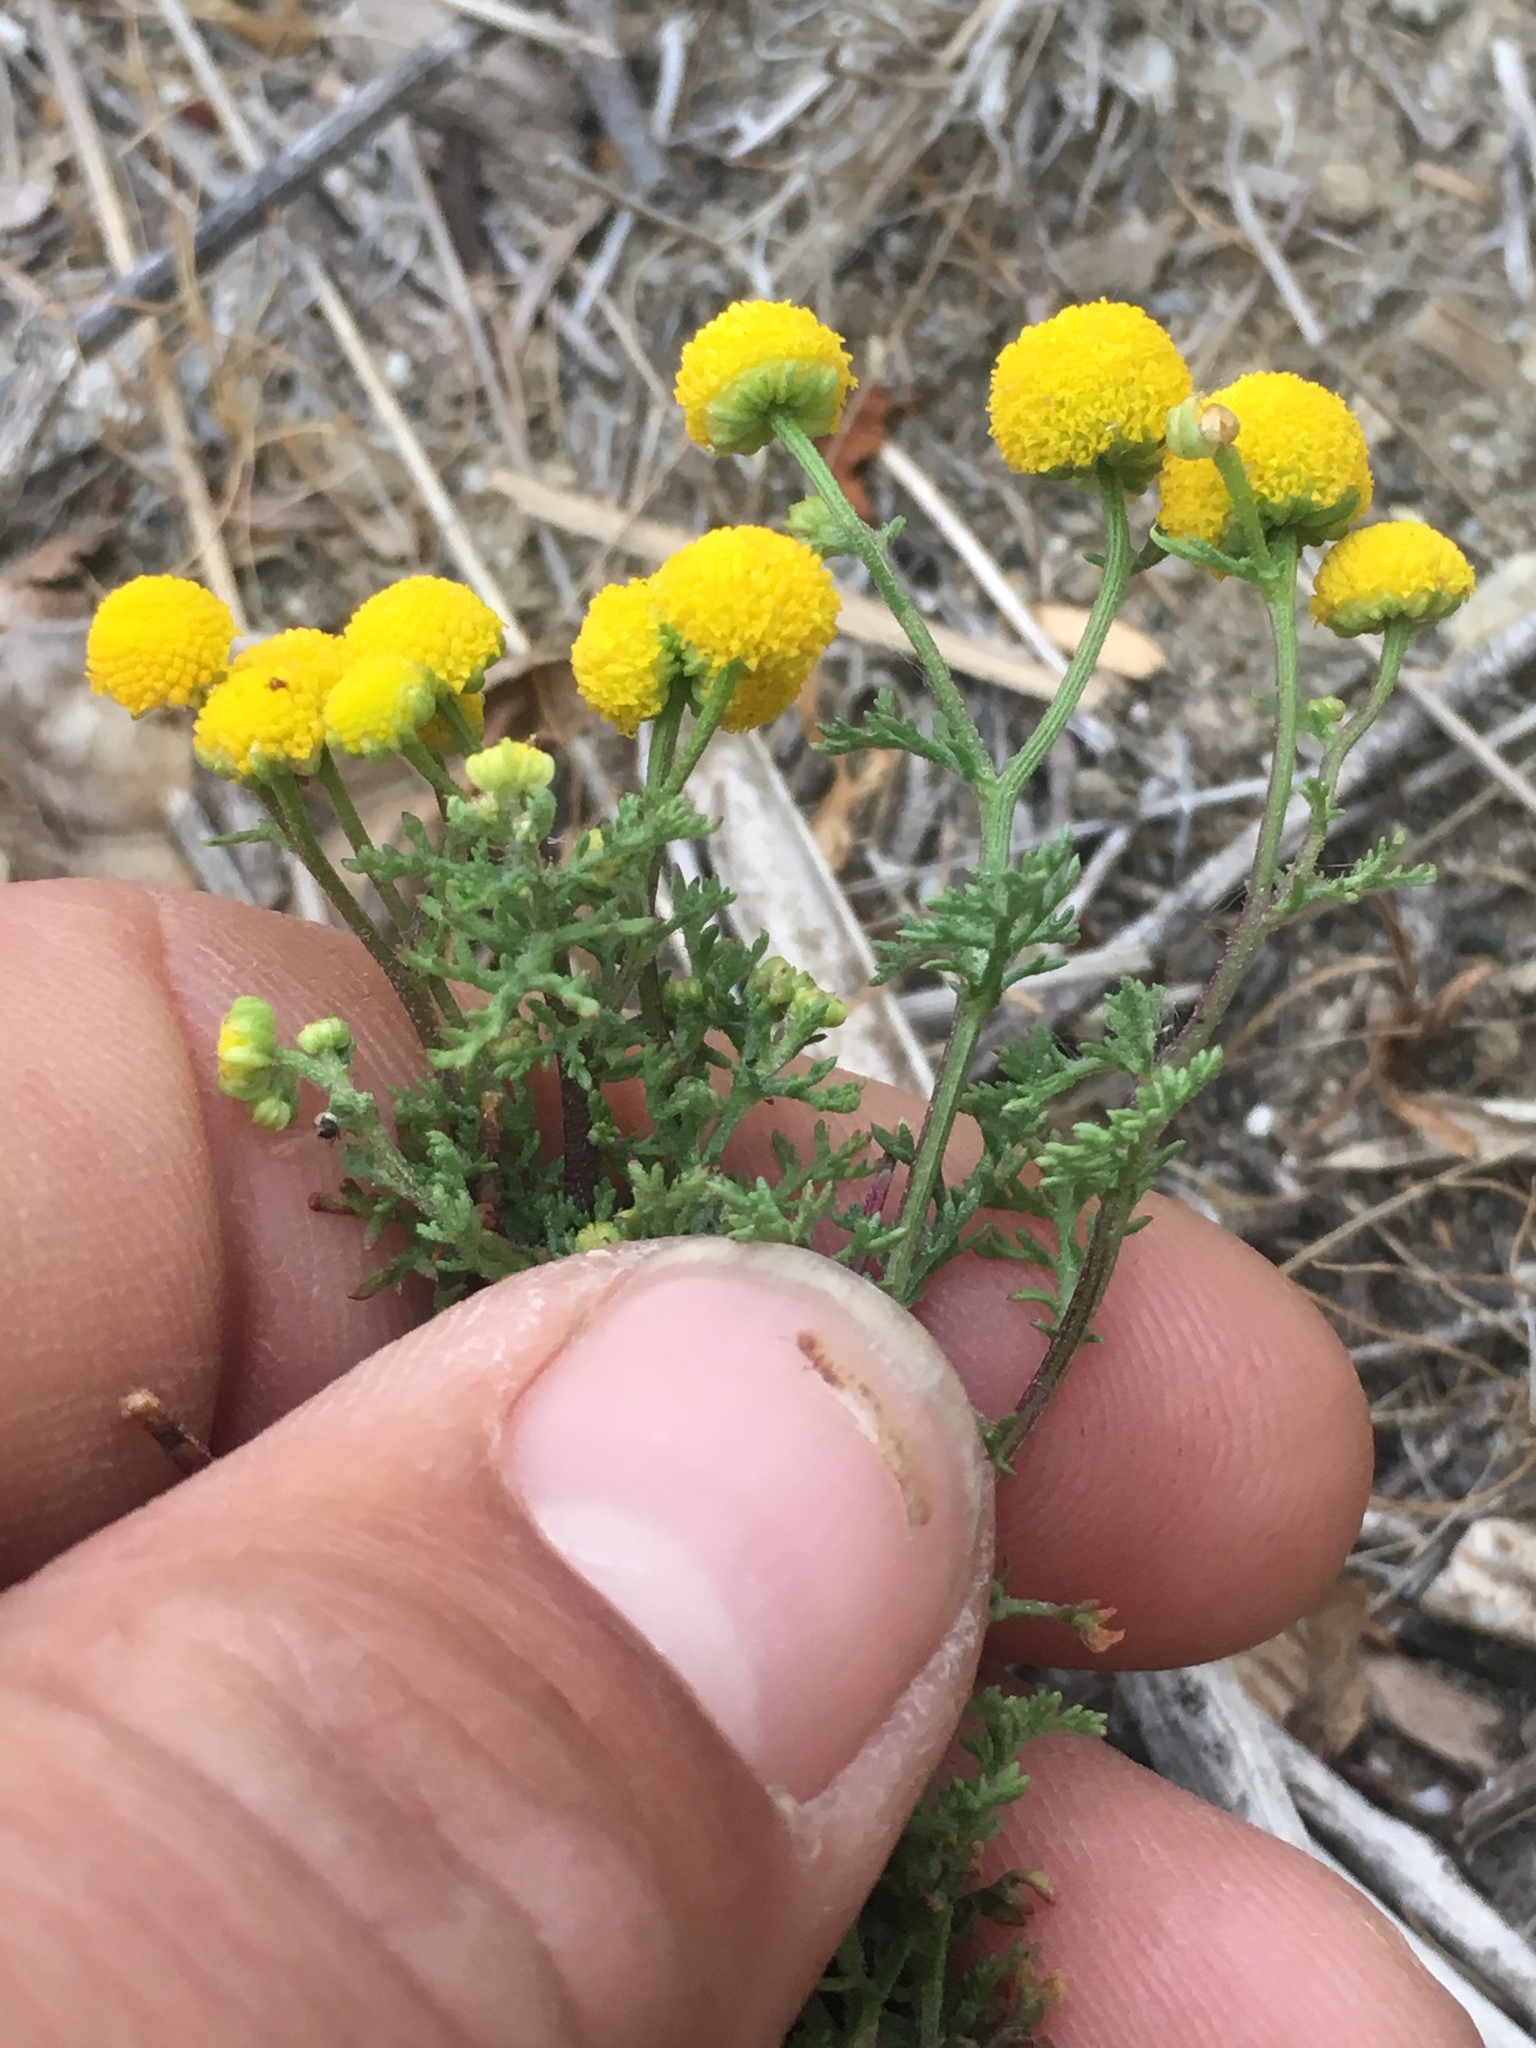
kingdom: Plantae
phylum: Tracheophyta
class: Magnoliopsida
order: Asterales
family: Asteraceae
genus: Oncosiphon
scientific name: Oncosiphon pilulifer
